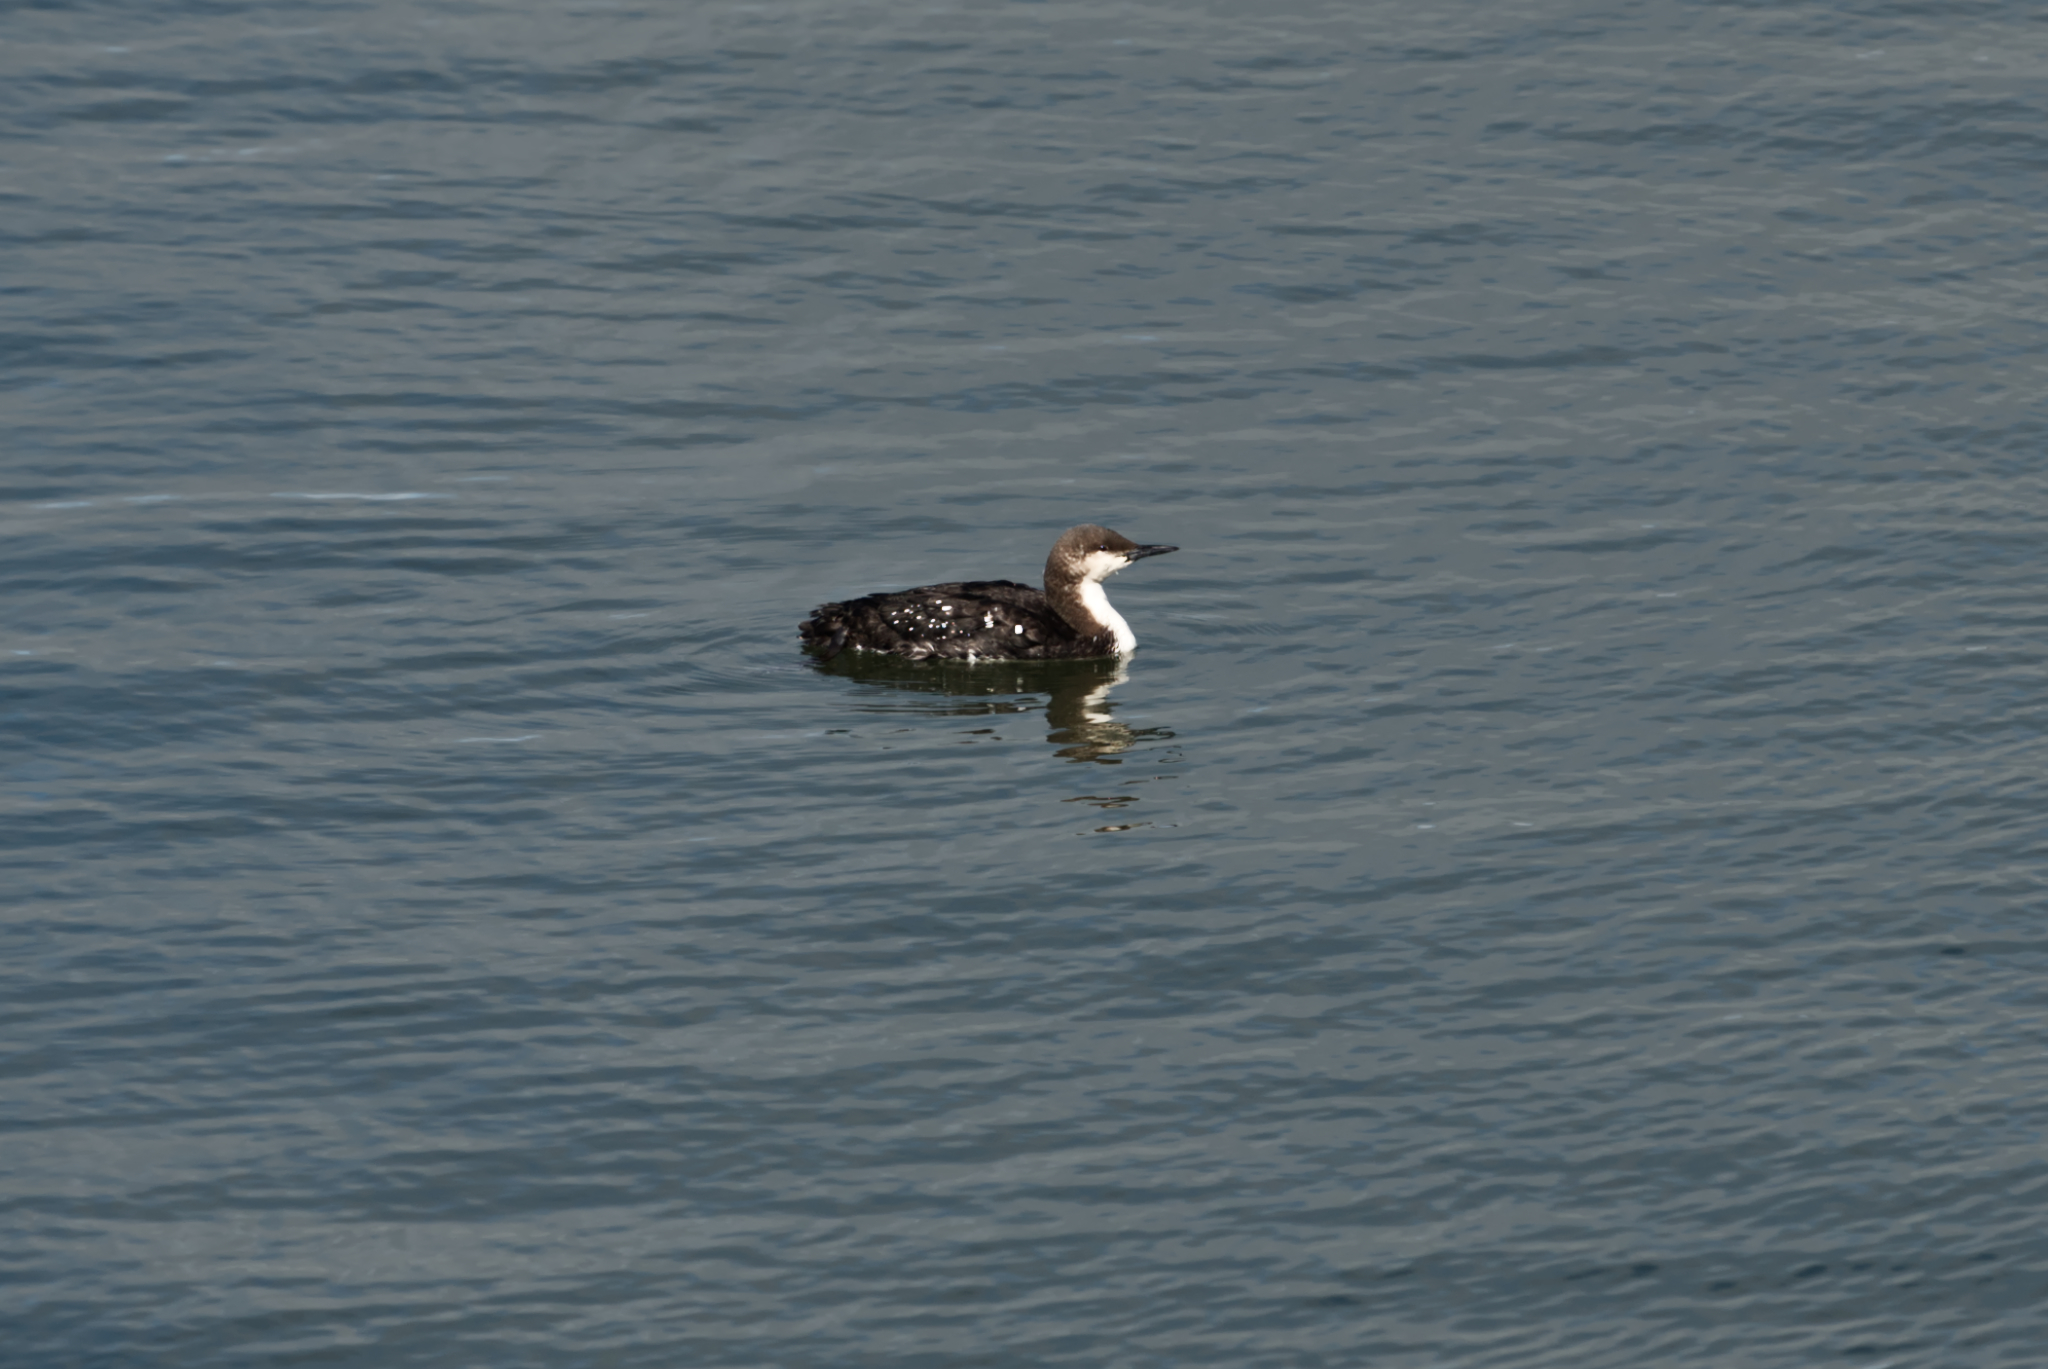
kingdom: Animalia
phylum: Chordata
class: Aves
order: Gaviiformes
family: Gaviidae
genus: Gavia
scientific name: Gavia pacifica
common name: Pacific loon
